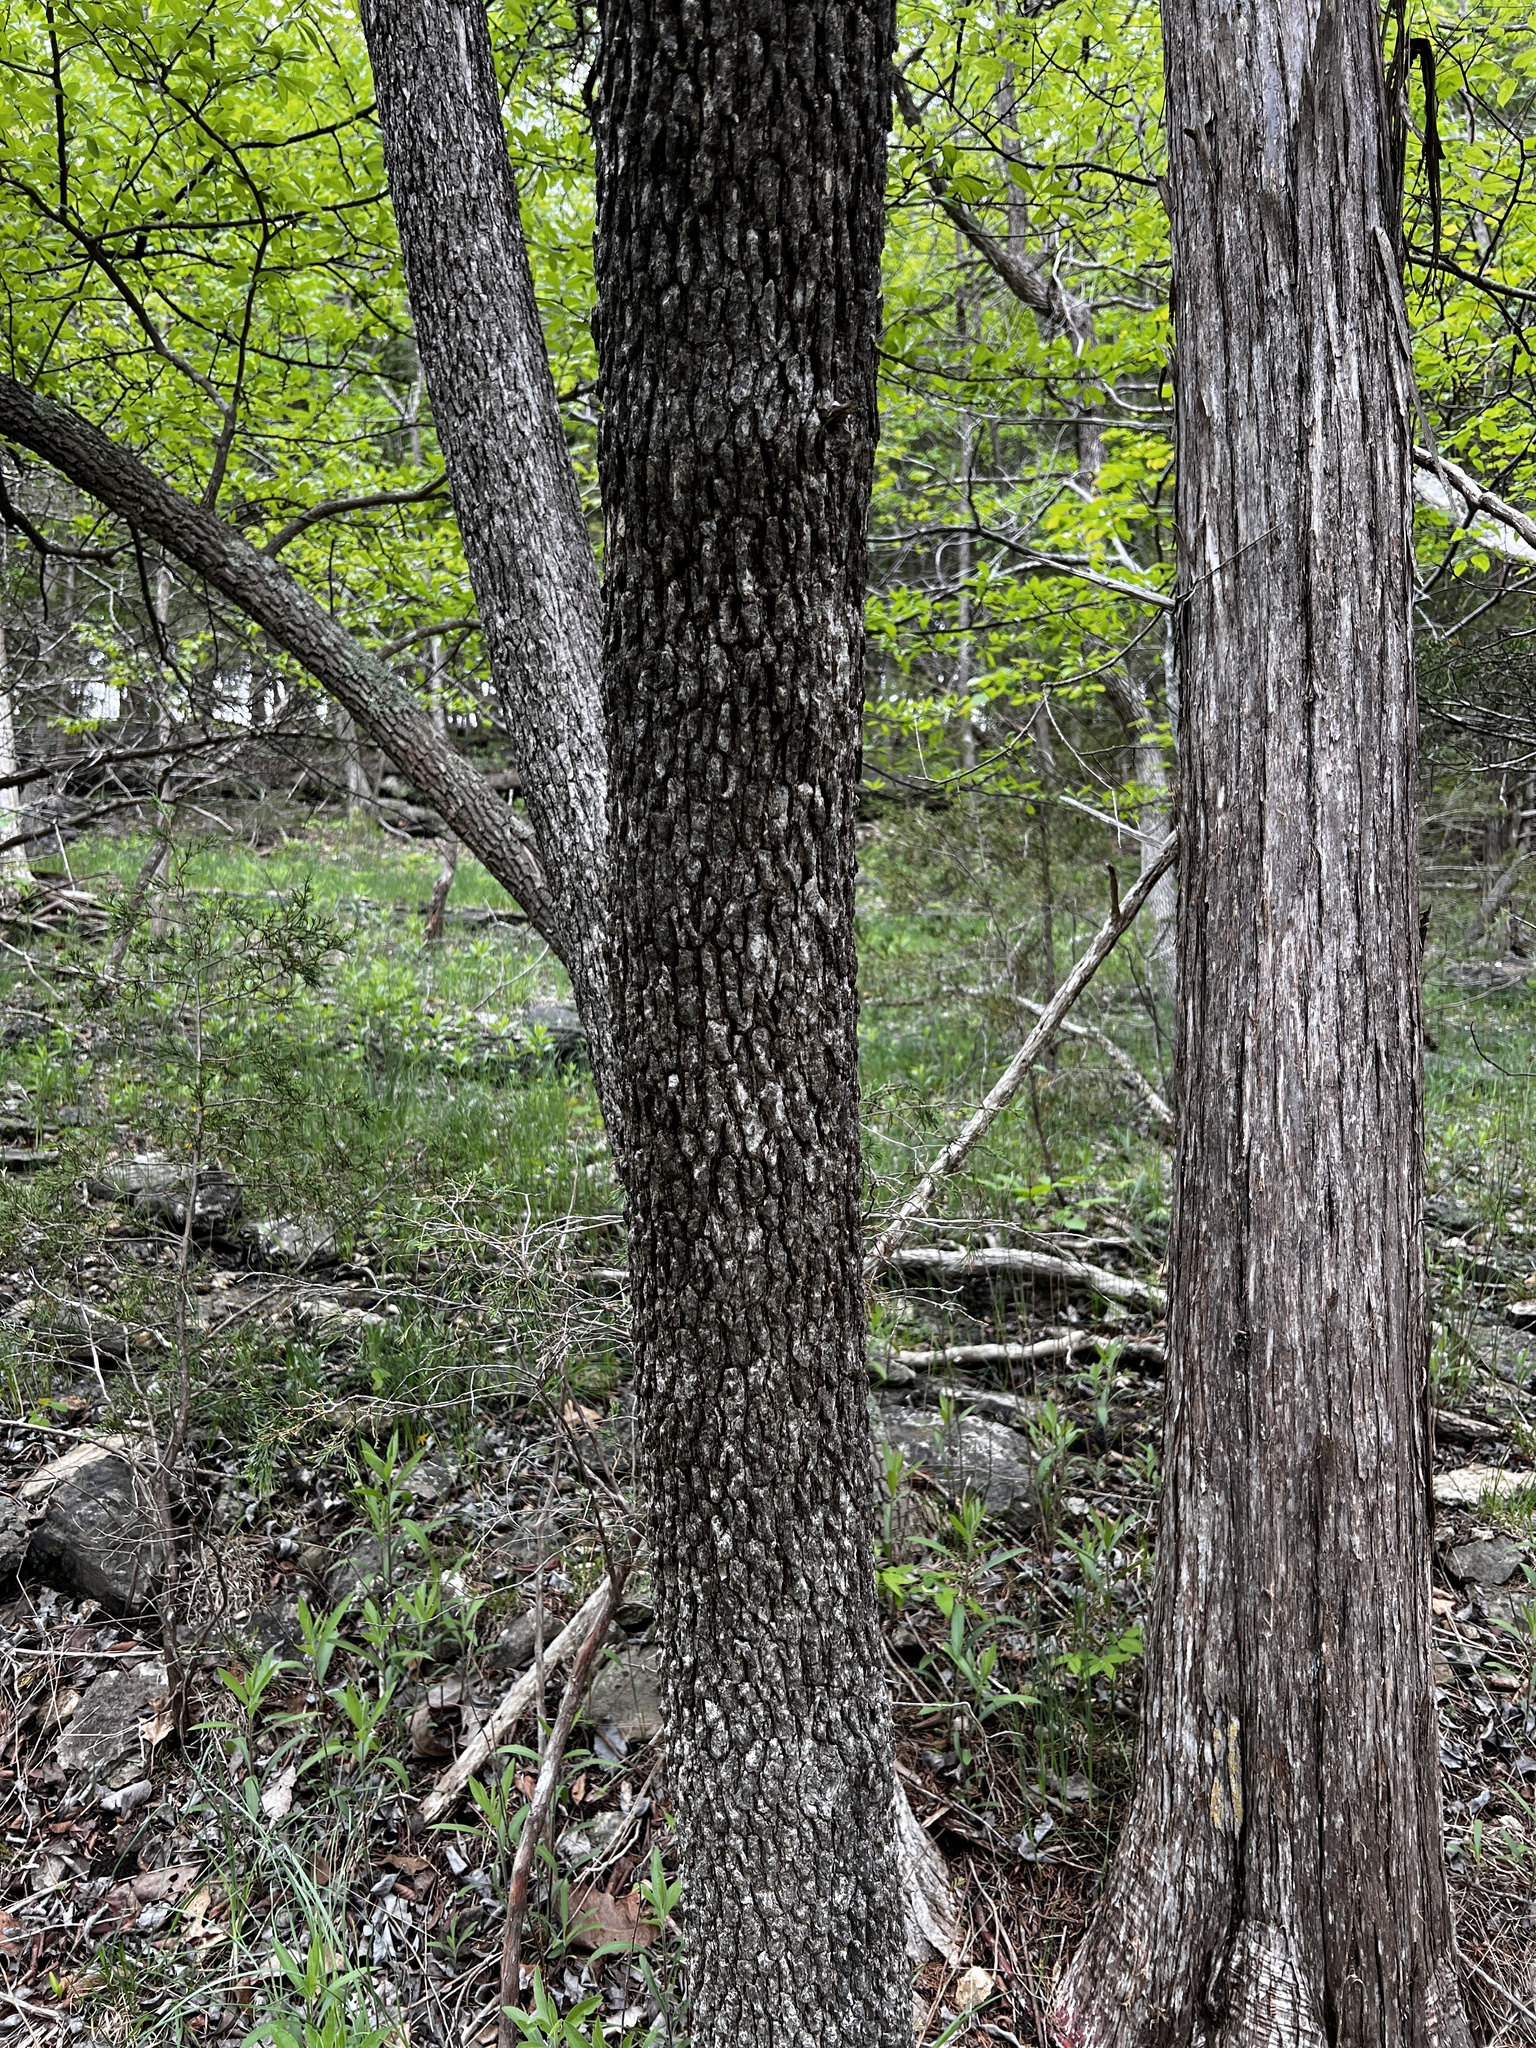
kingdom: Plantae
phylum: Tracheophyta
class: Magnoliopsida
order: Lamiales
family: Oleaceae
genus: Fraxinus
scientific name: Fraxinus quadrangulata
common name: Blue ash
